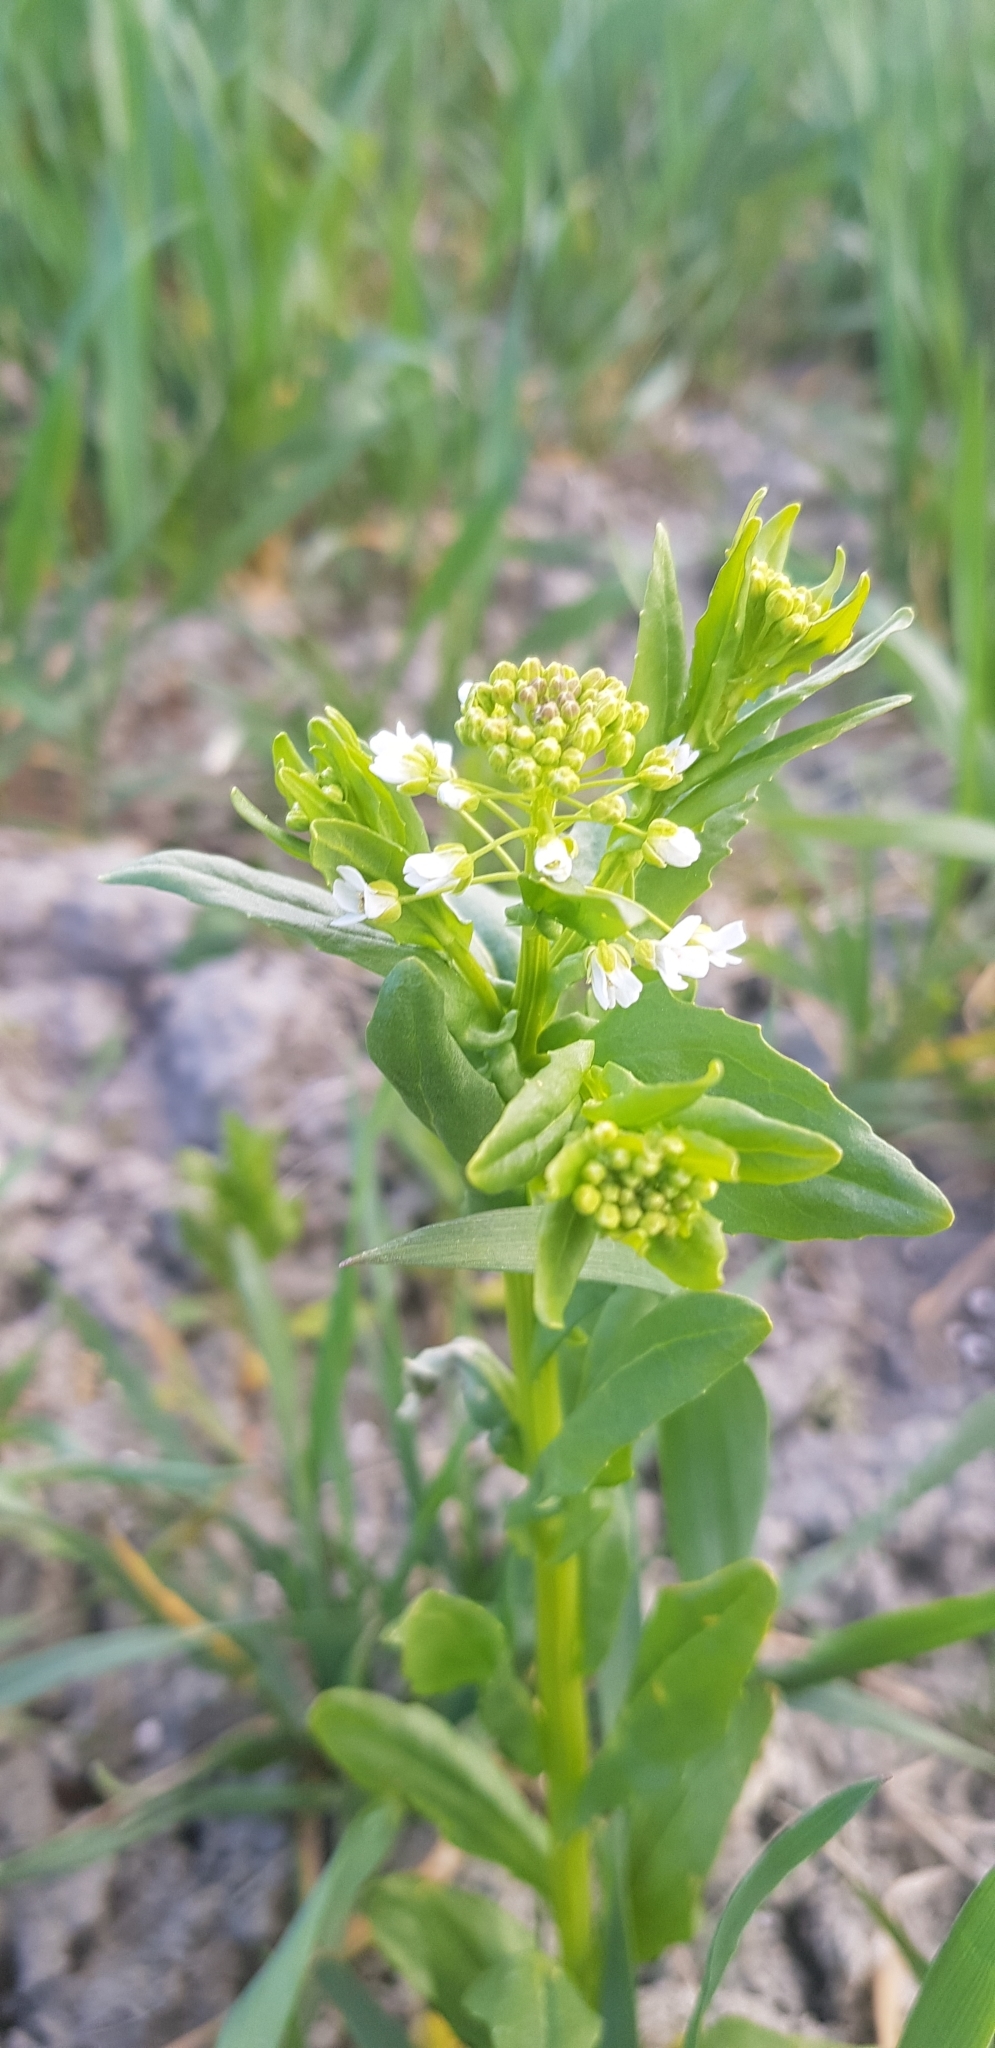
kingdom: Plantae
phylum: Tracheophyta
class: Magnoliopsida
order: Brassicales
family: Brassicaceae
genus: Thlaspi
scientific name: Thlaspi arvense
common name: Field pennycress
